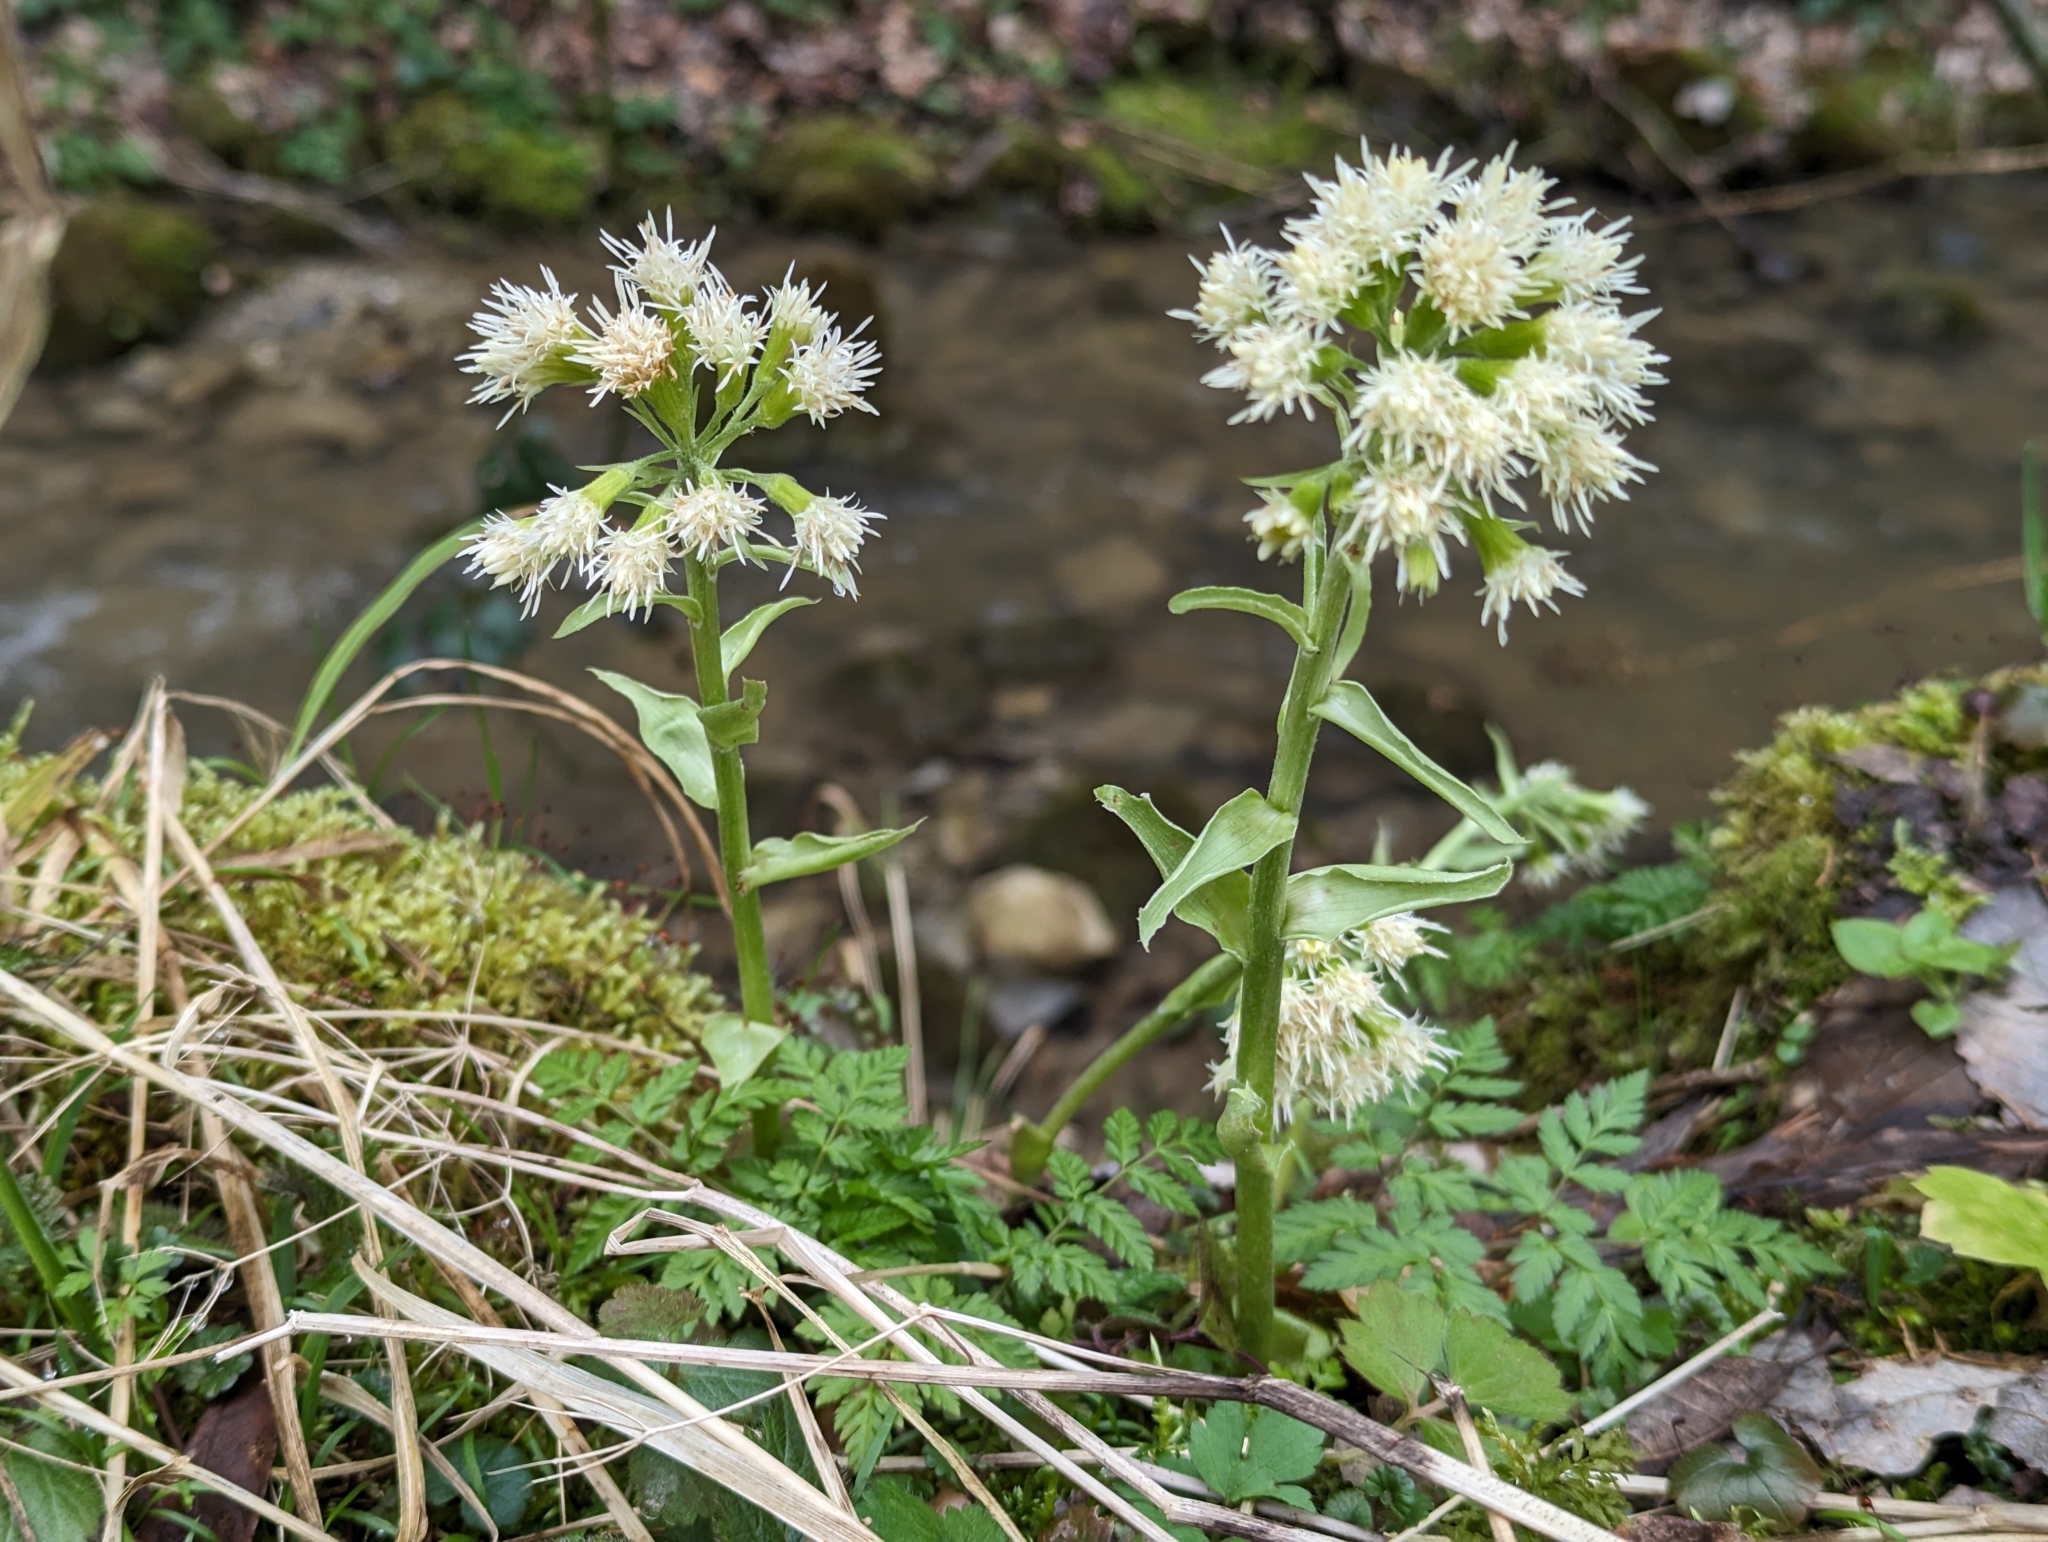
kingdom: Plantae
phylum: Tracheophyta
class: Magnoliopsida
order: Asterales
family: Asteraceae
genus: Petasites
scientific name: Petasites albus
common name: White butterbur
